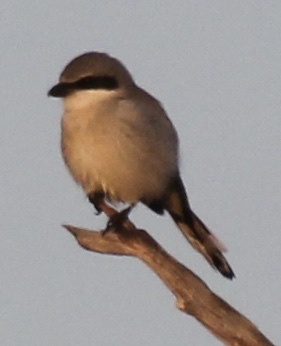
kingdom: Animalia
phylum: Chordata
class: Aves
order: Passeriformes
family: Laniidae
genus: Lanius
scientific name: Lanius ludovicianus
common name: Loggerhead shrike
